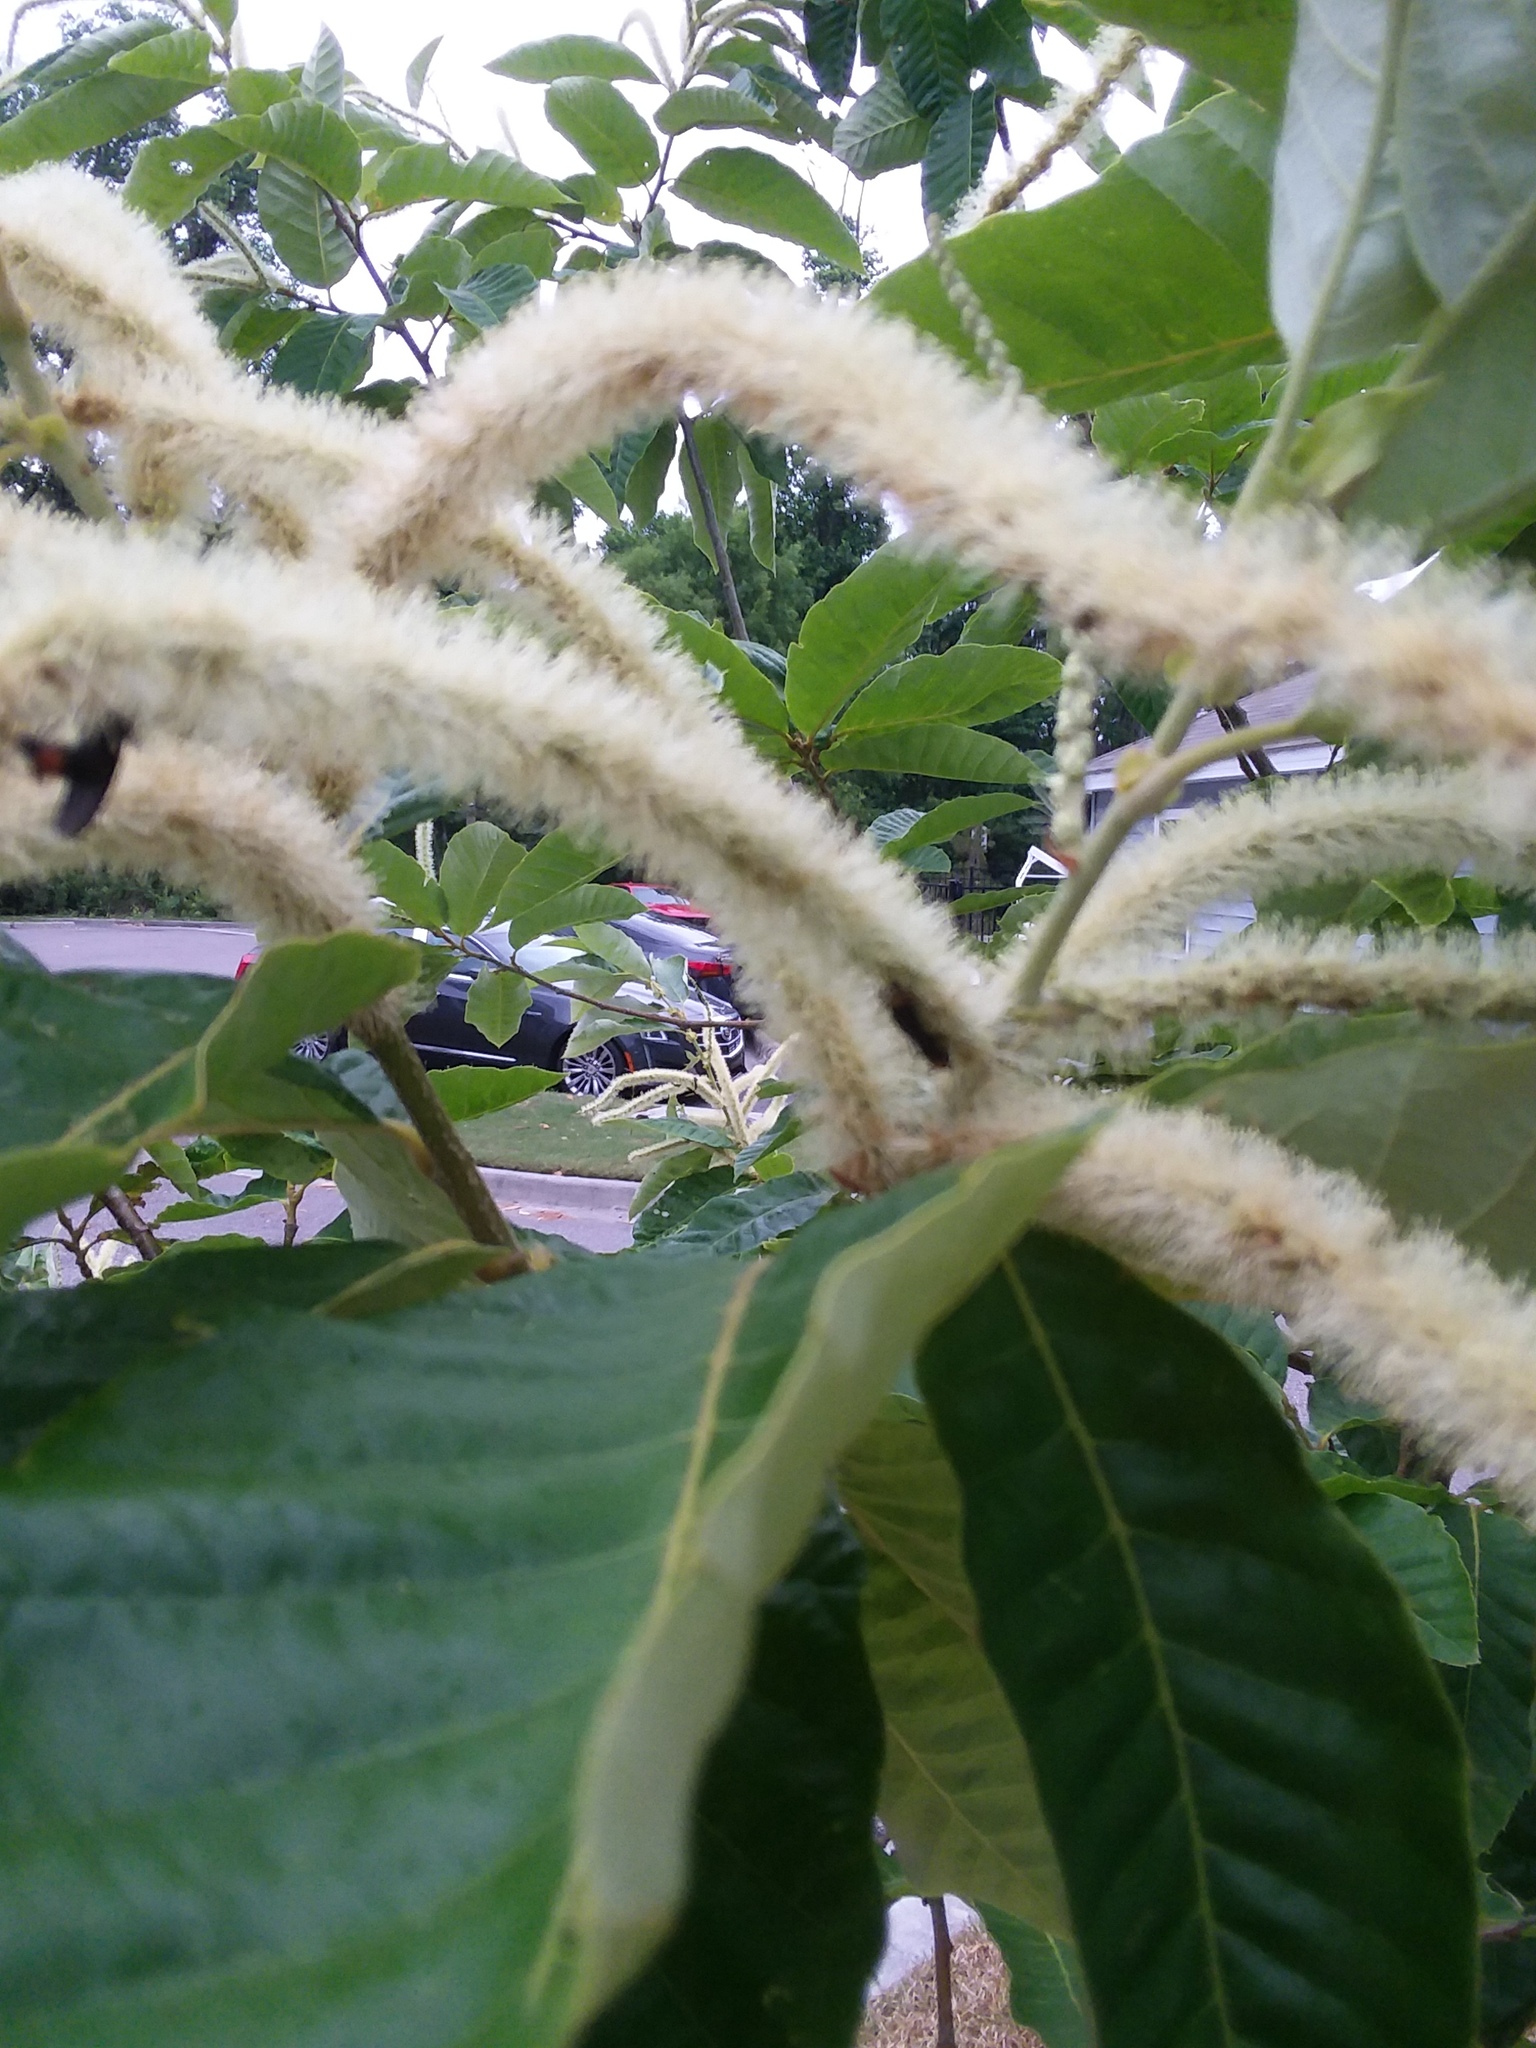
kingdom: Animalia
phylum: Arthropoda
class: Insecta
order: Diptera
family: Bibionidae
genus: Plecia
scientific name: Plecia nearctica
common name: March fly
